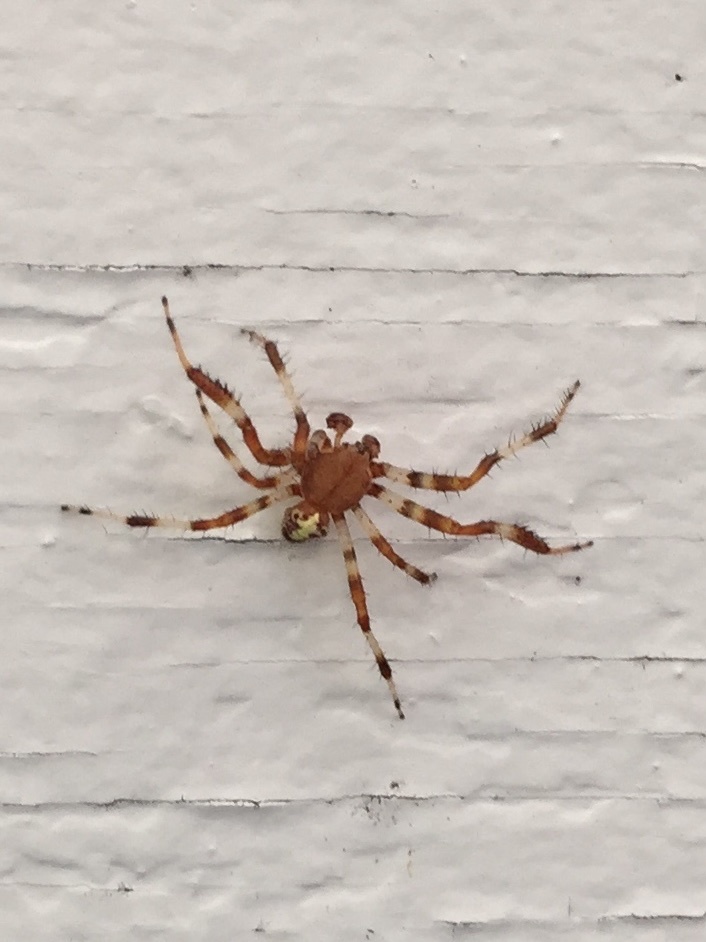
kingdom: Animalia
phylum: Arthropoda
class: Arachnida
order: Araneae
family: Araneidae
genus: Araneus
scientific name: Araneus marmoreus
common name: Marbled orbweaver
